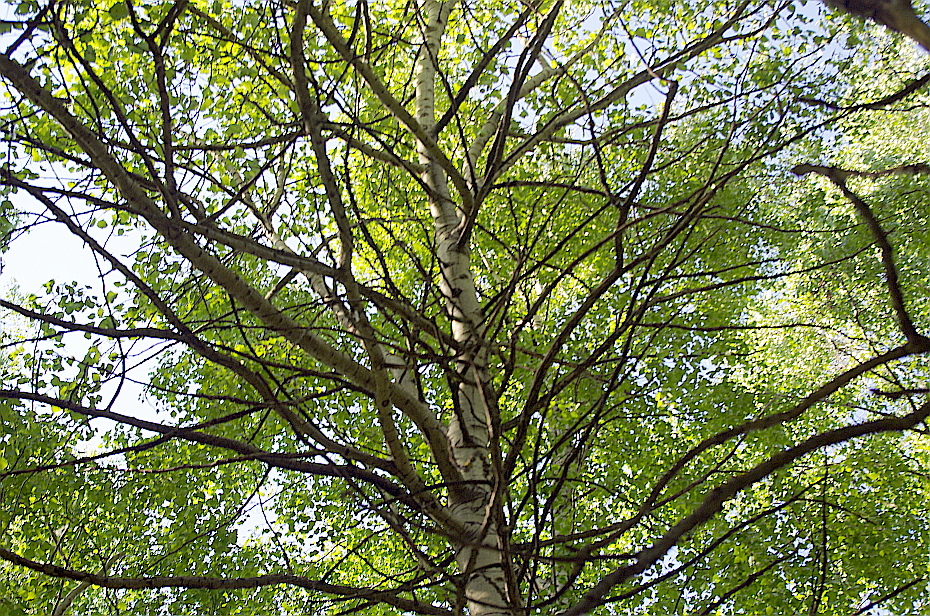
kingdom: Plantae
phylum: Tracheophyta
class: Magnoliopsida
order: Malpighiales
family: Salicaceae
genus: Populus
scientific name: Populus tremula
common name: European aspen
